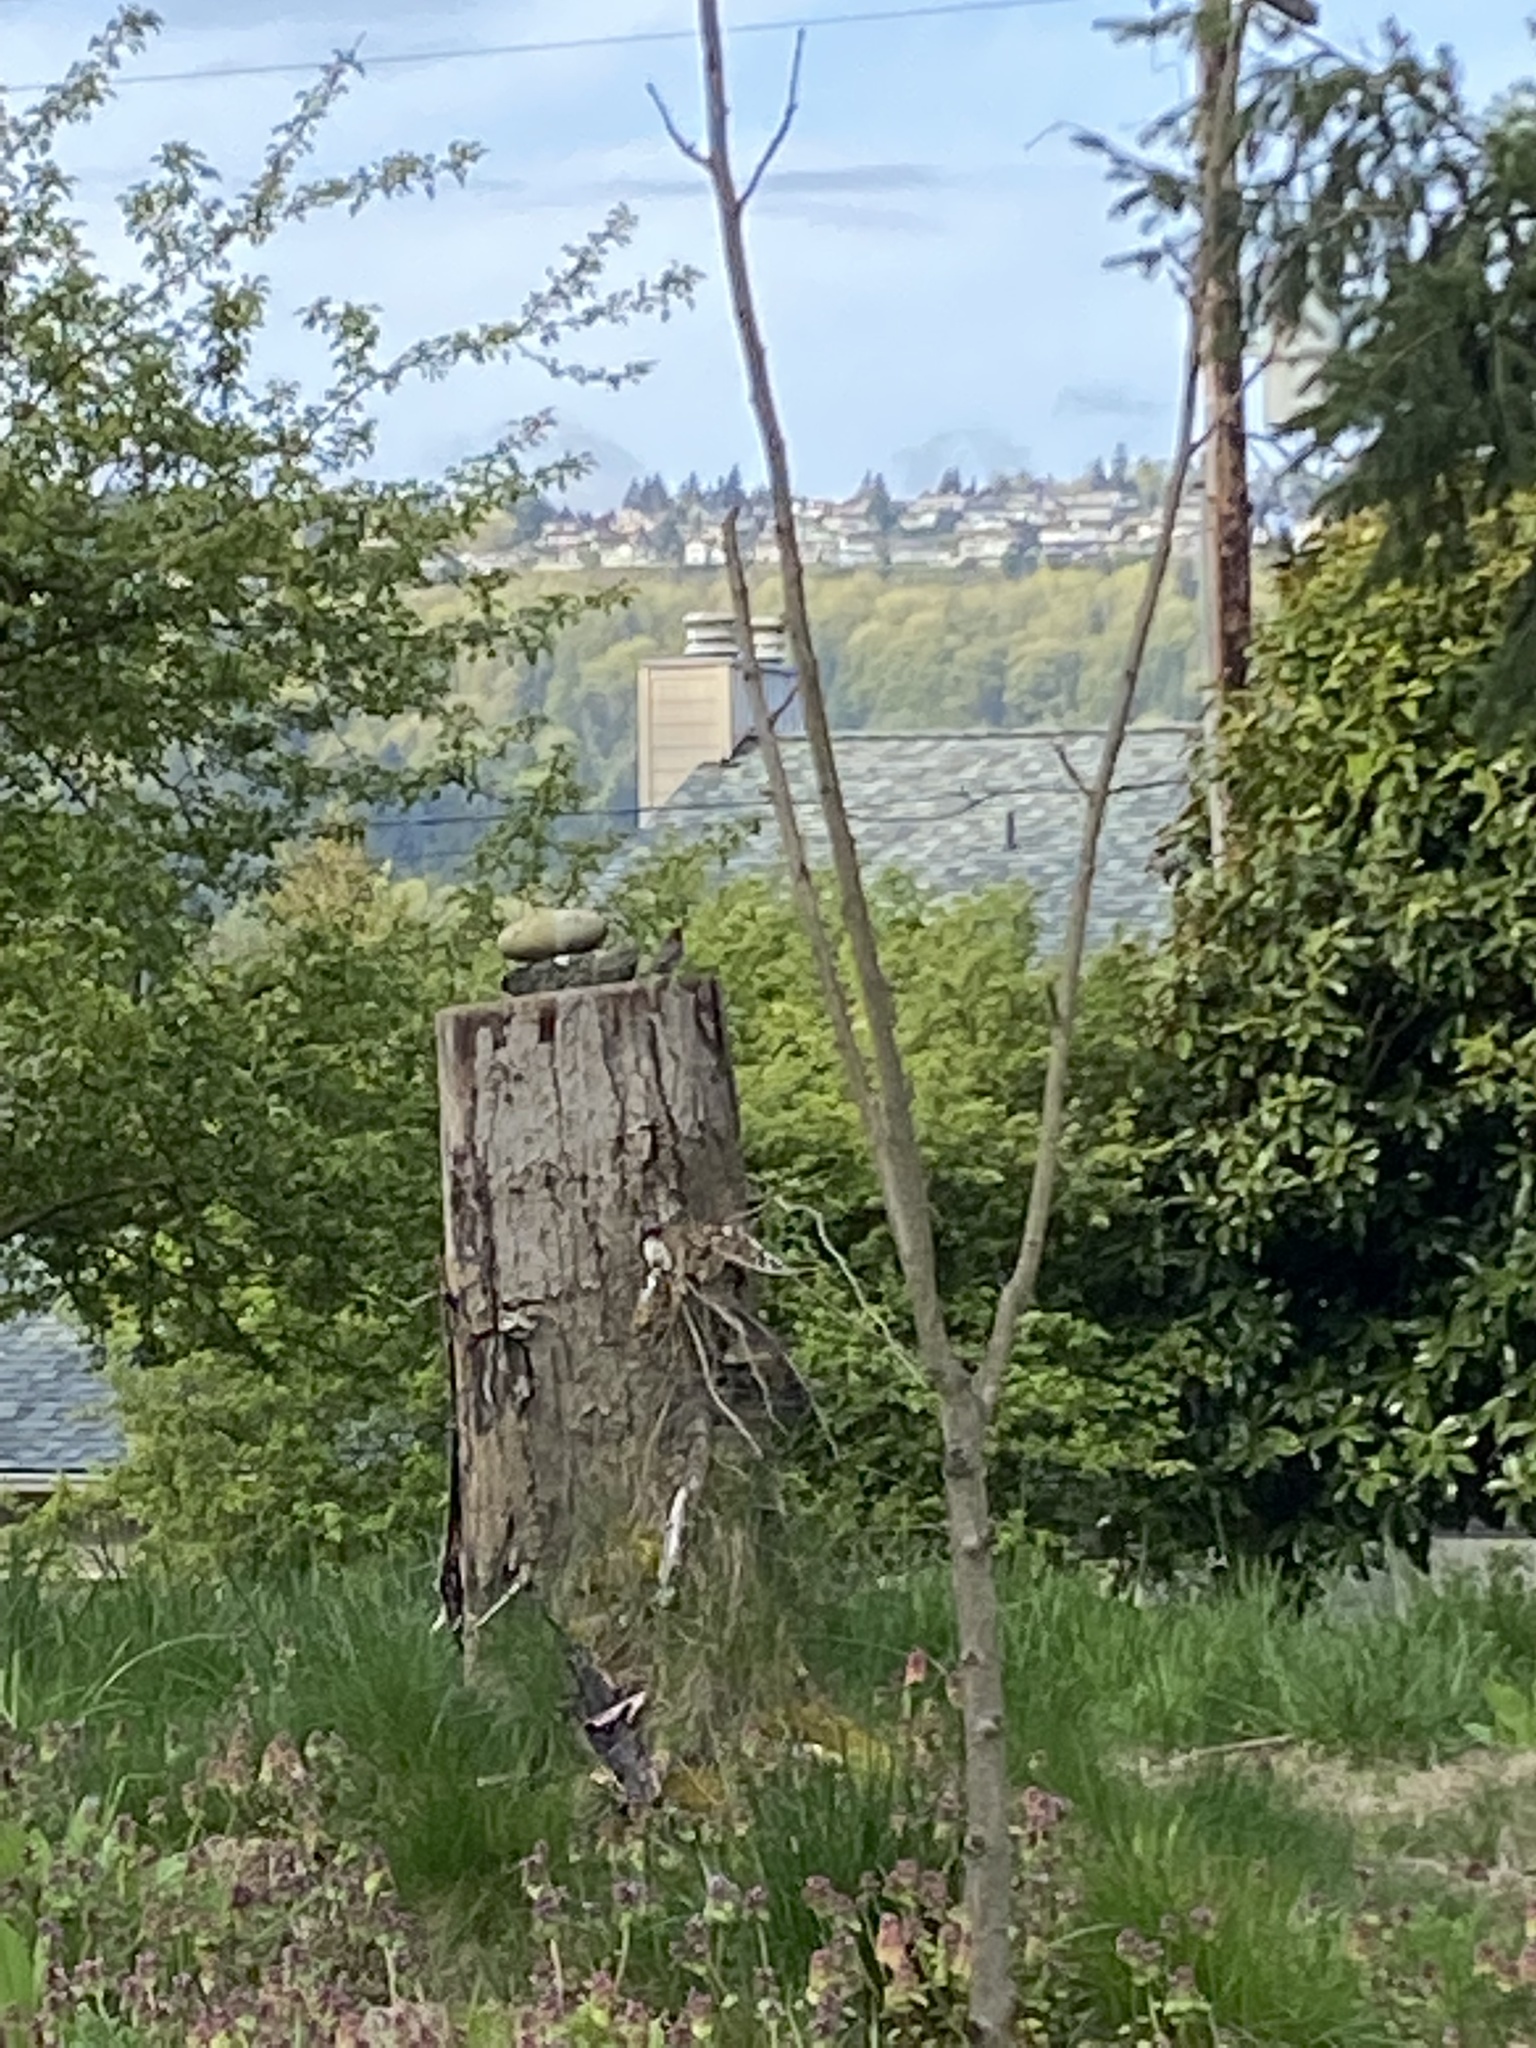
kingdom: Animalia
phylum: Chordata
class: Aves
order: Passeriformes
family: Fringillidae
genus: Haemorhous
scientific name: Haemorhous mexicanus
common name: House finch
